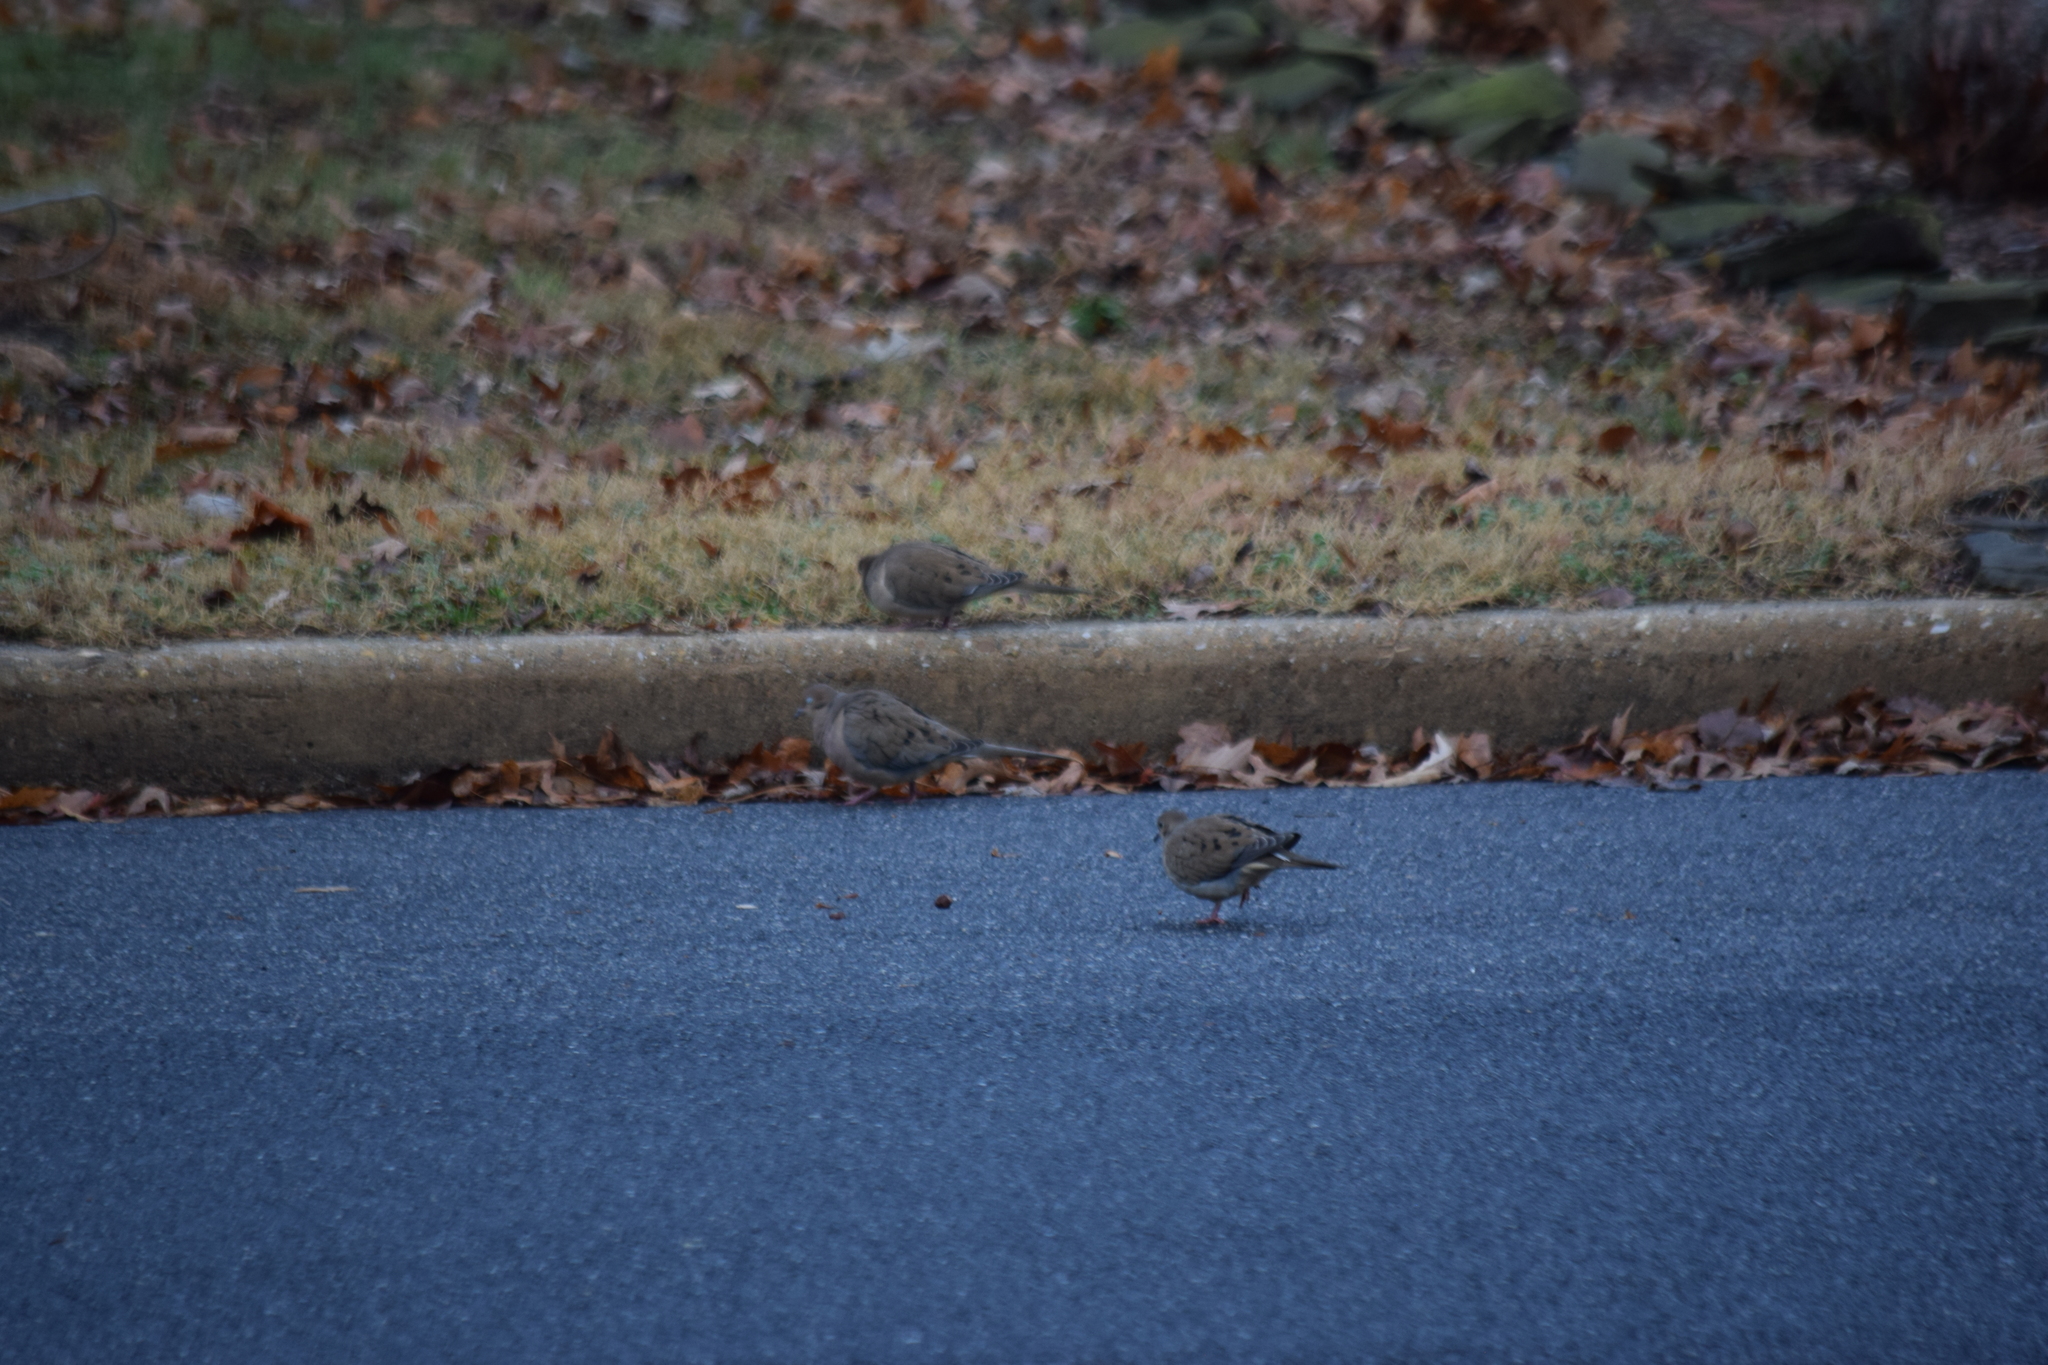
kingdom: Animalia
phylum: Chordata
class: Aves
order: Columbiformes
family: Columbidae
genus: Zenaida
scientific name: Zenaida macroura
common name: Mourning dove
